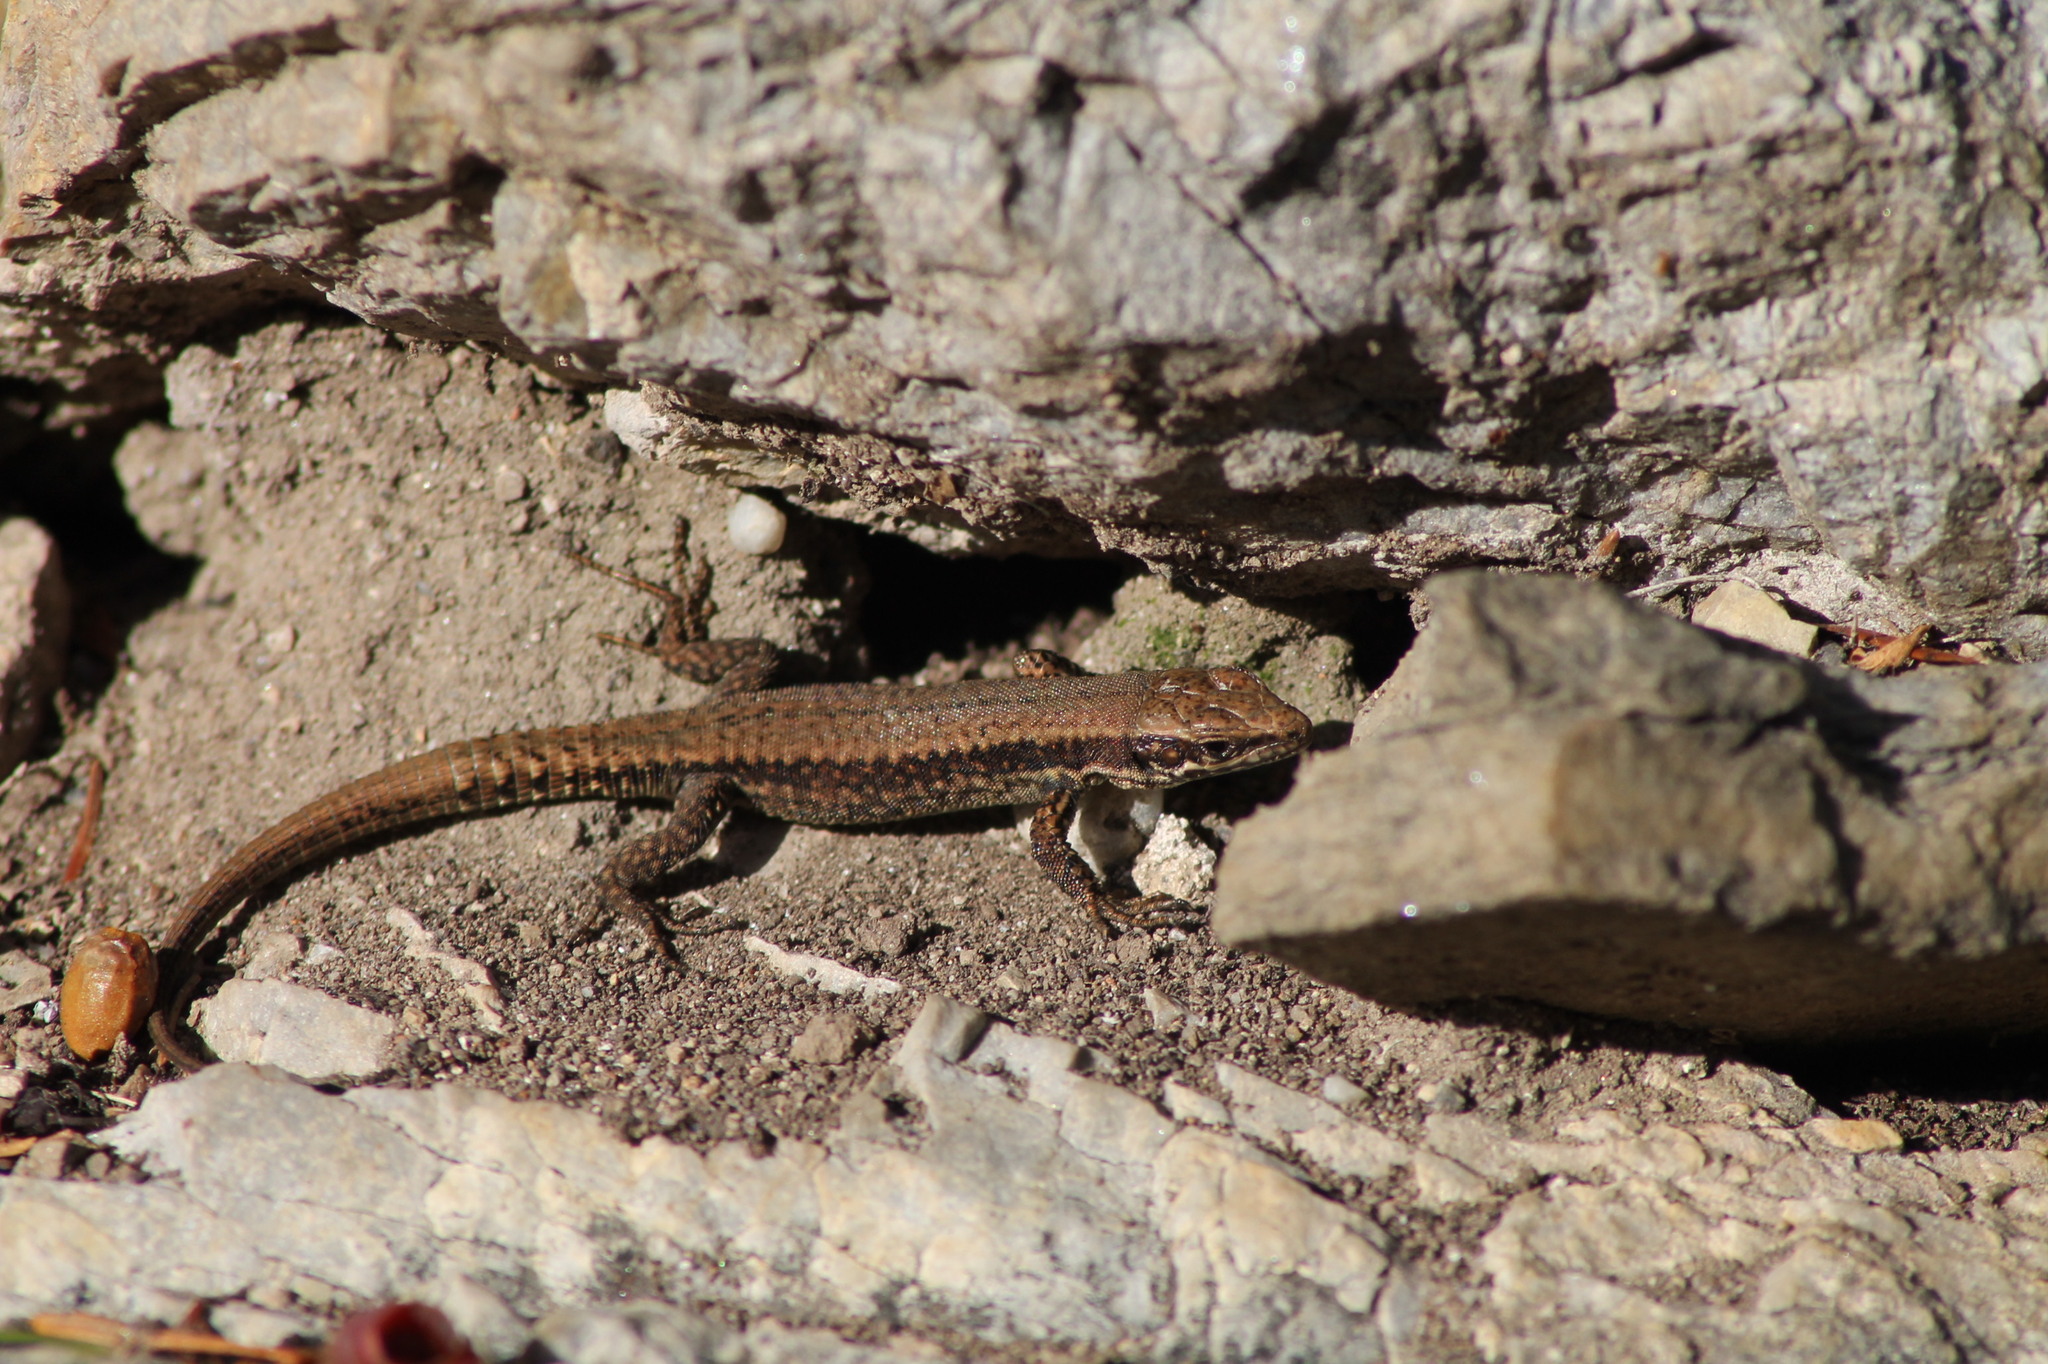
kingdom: Animalia
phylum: Chordata
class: Squamata
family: Lacertidae
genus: Podarcis
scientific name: Podarcis muralis
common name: Common wall lizard
